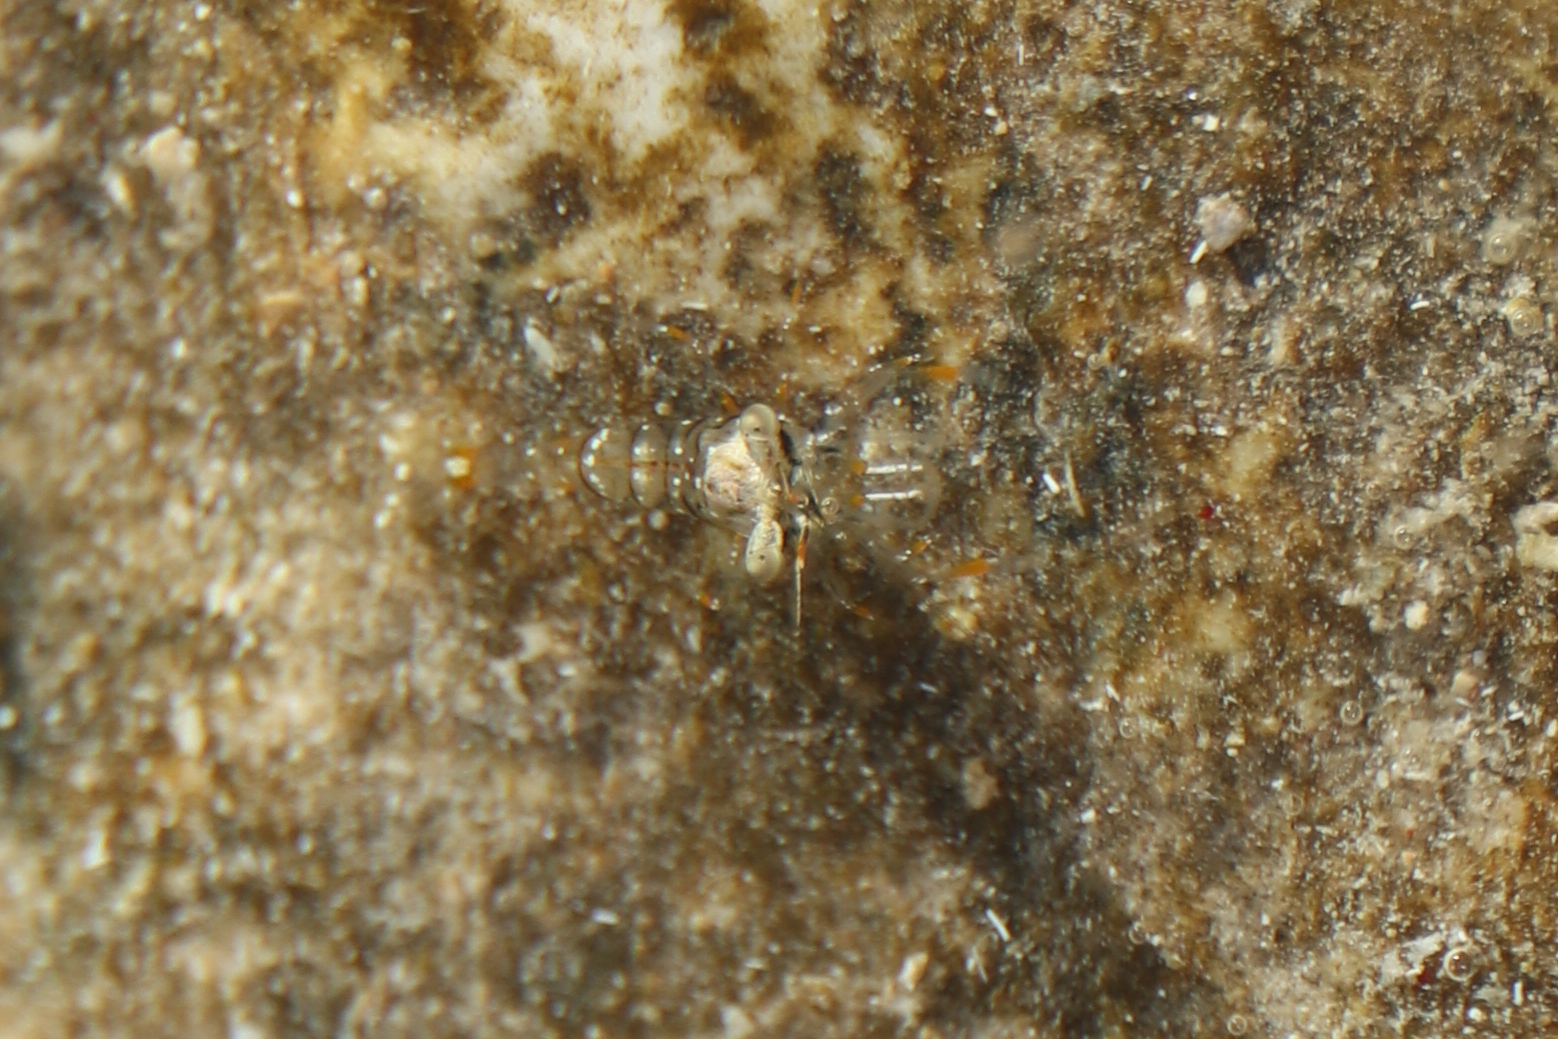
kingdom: Animalia
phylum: Arthropoda
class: Malacostraca
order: Decapoda
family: Palaemonidae
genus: Palaemon
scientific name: Palaemon elegans
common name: Grass prawm
